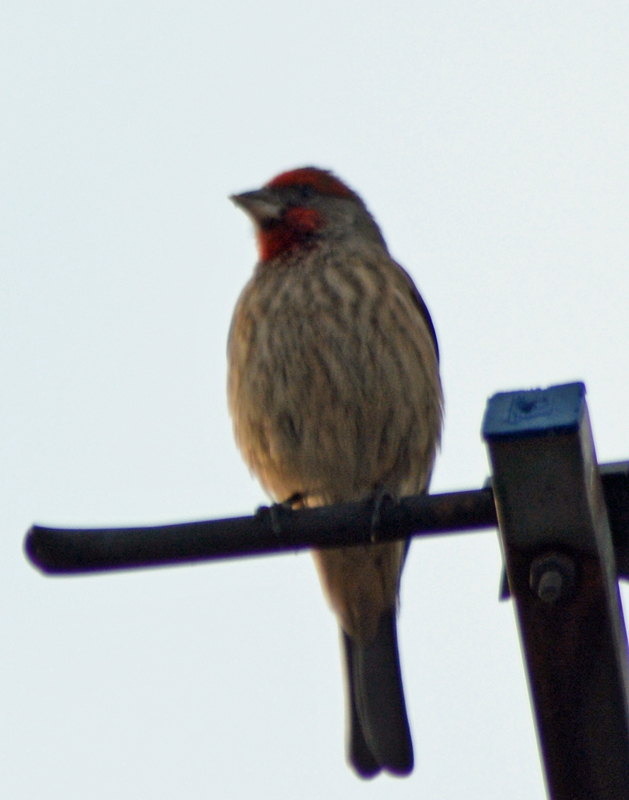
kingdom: Animalia
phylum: Chordata
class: Aves
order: Passeriformes
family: Fringillidae
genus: Haemorhous
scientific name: Haemorhous mexicanus
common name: House finch
